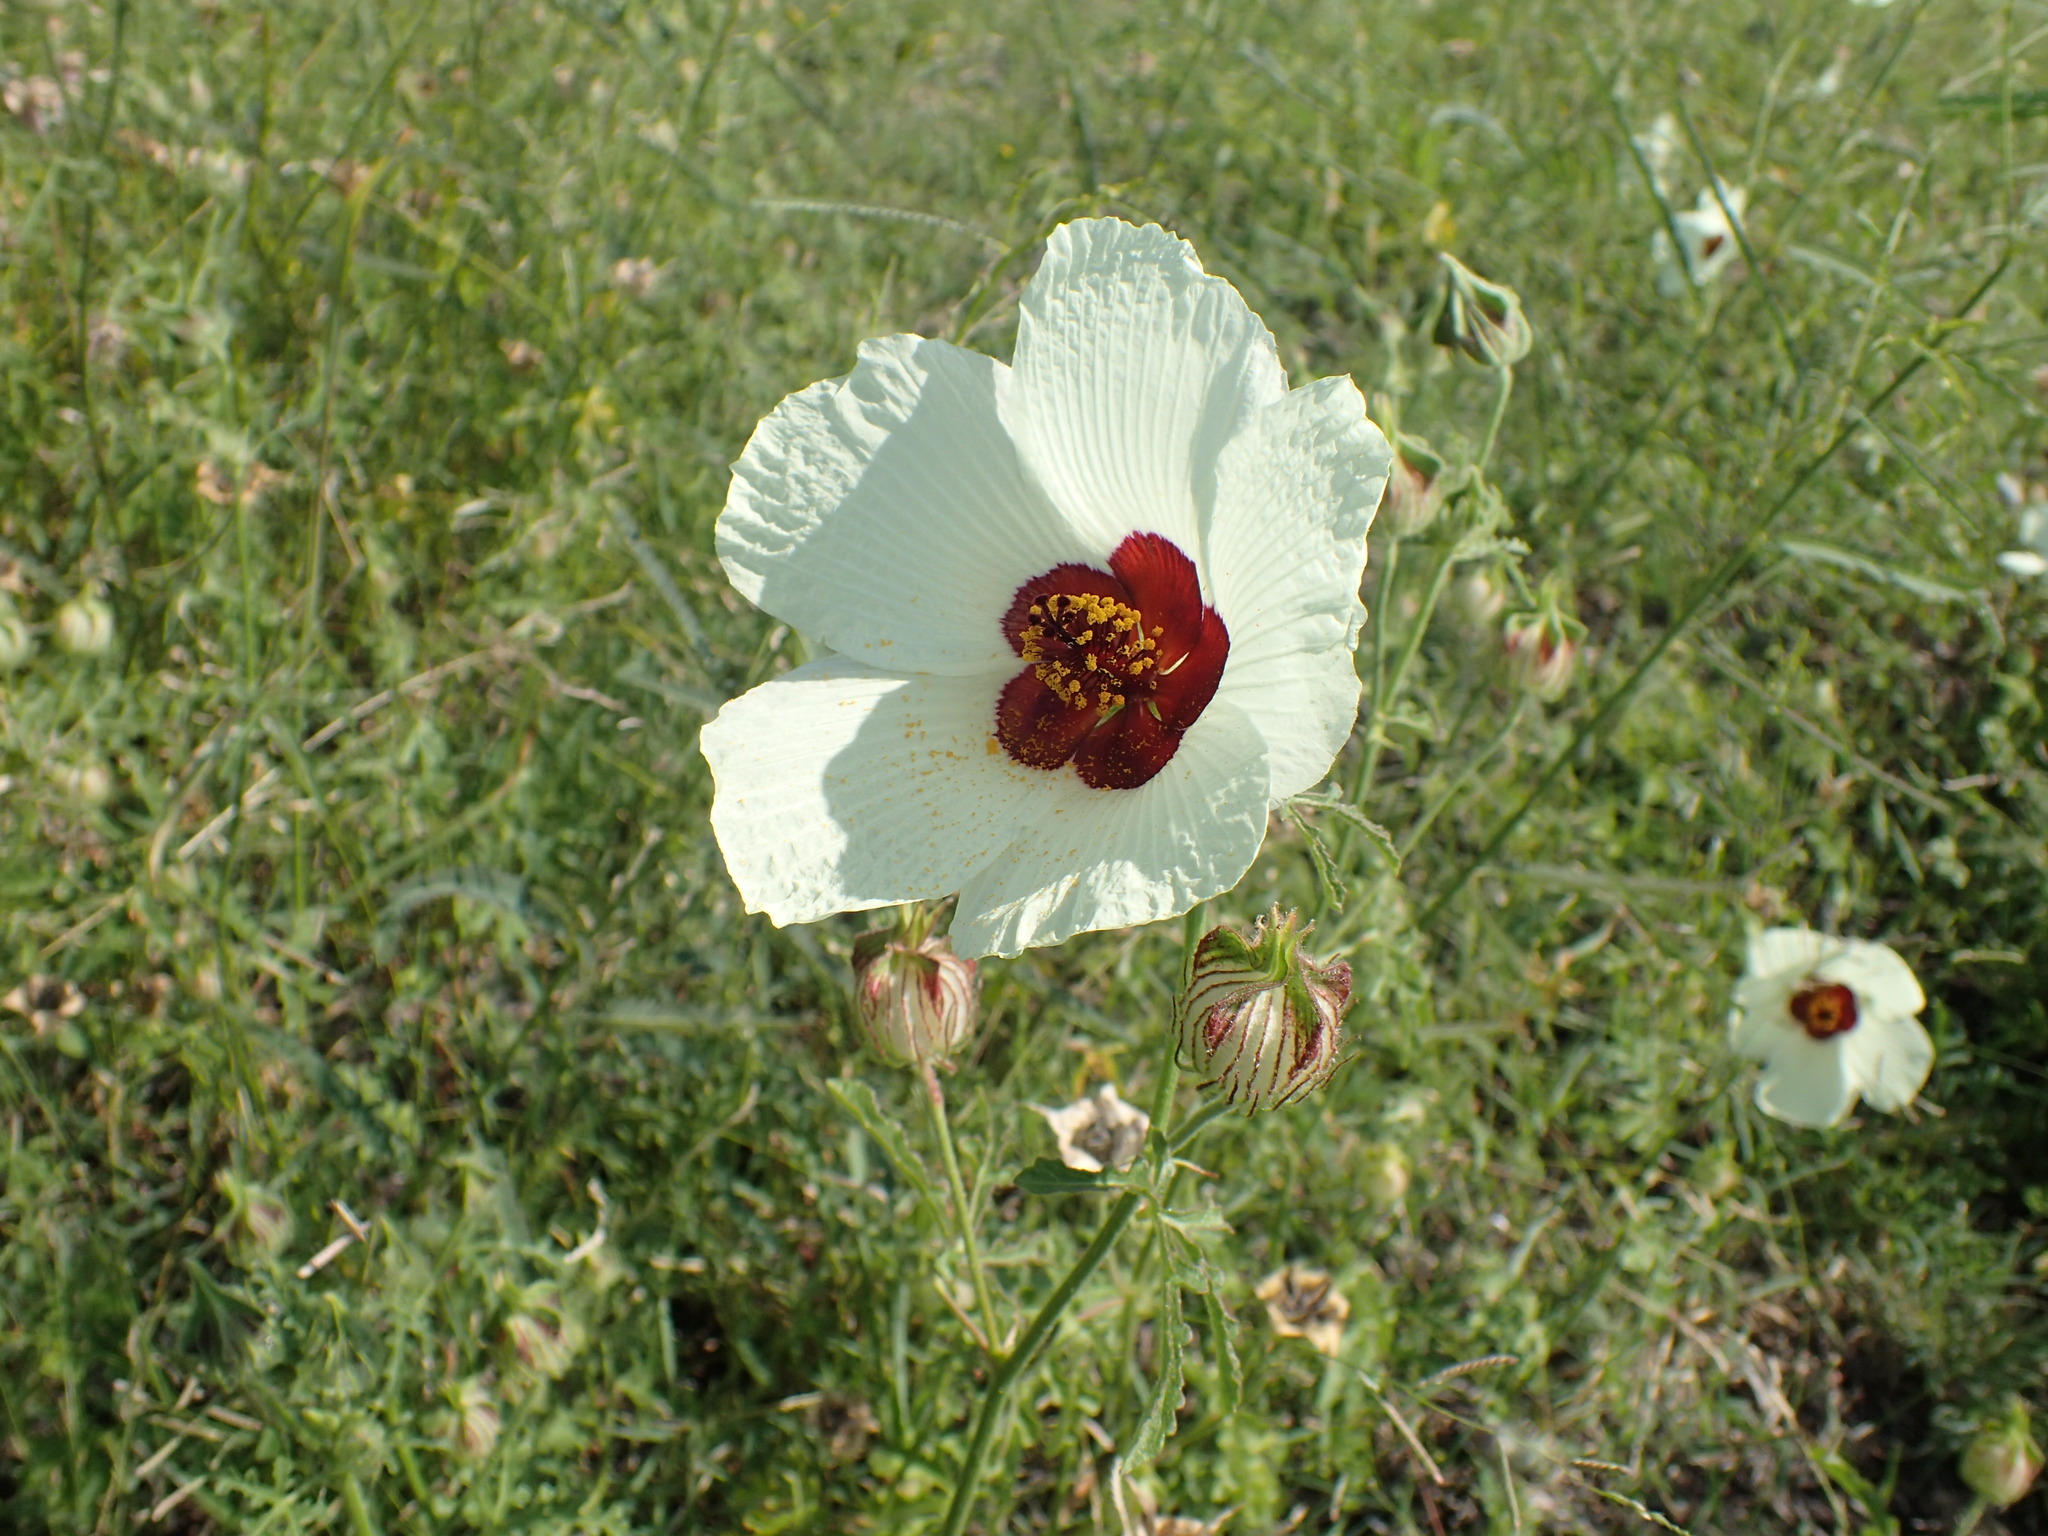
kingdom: Plantae
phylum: Tracheophyta
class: Magnoliopsida
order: Malvales
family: Malvaceae
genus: Hibiscus
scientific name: Hibiscus trionum
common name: Bladder ketmia
